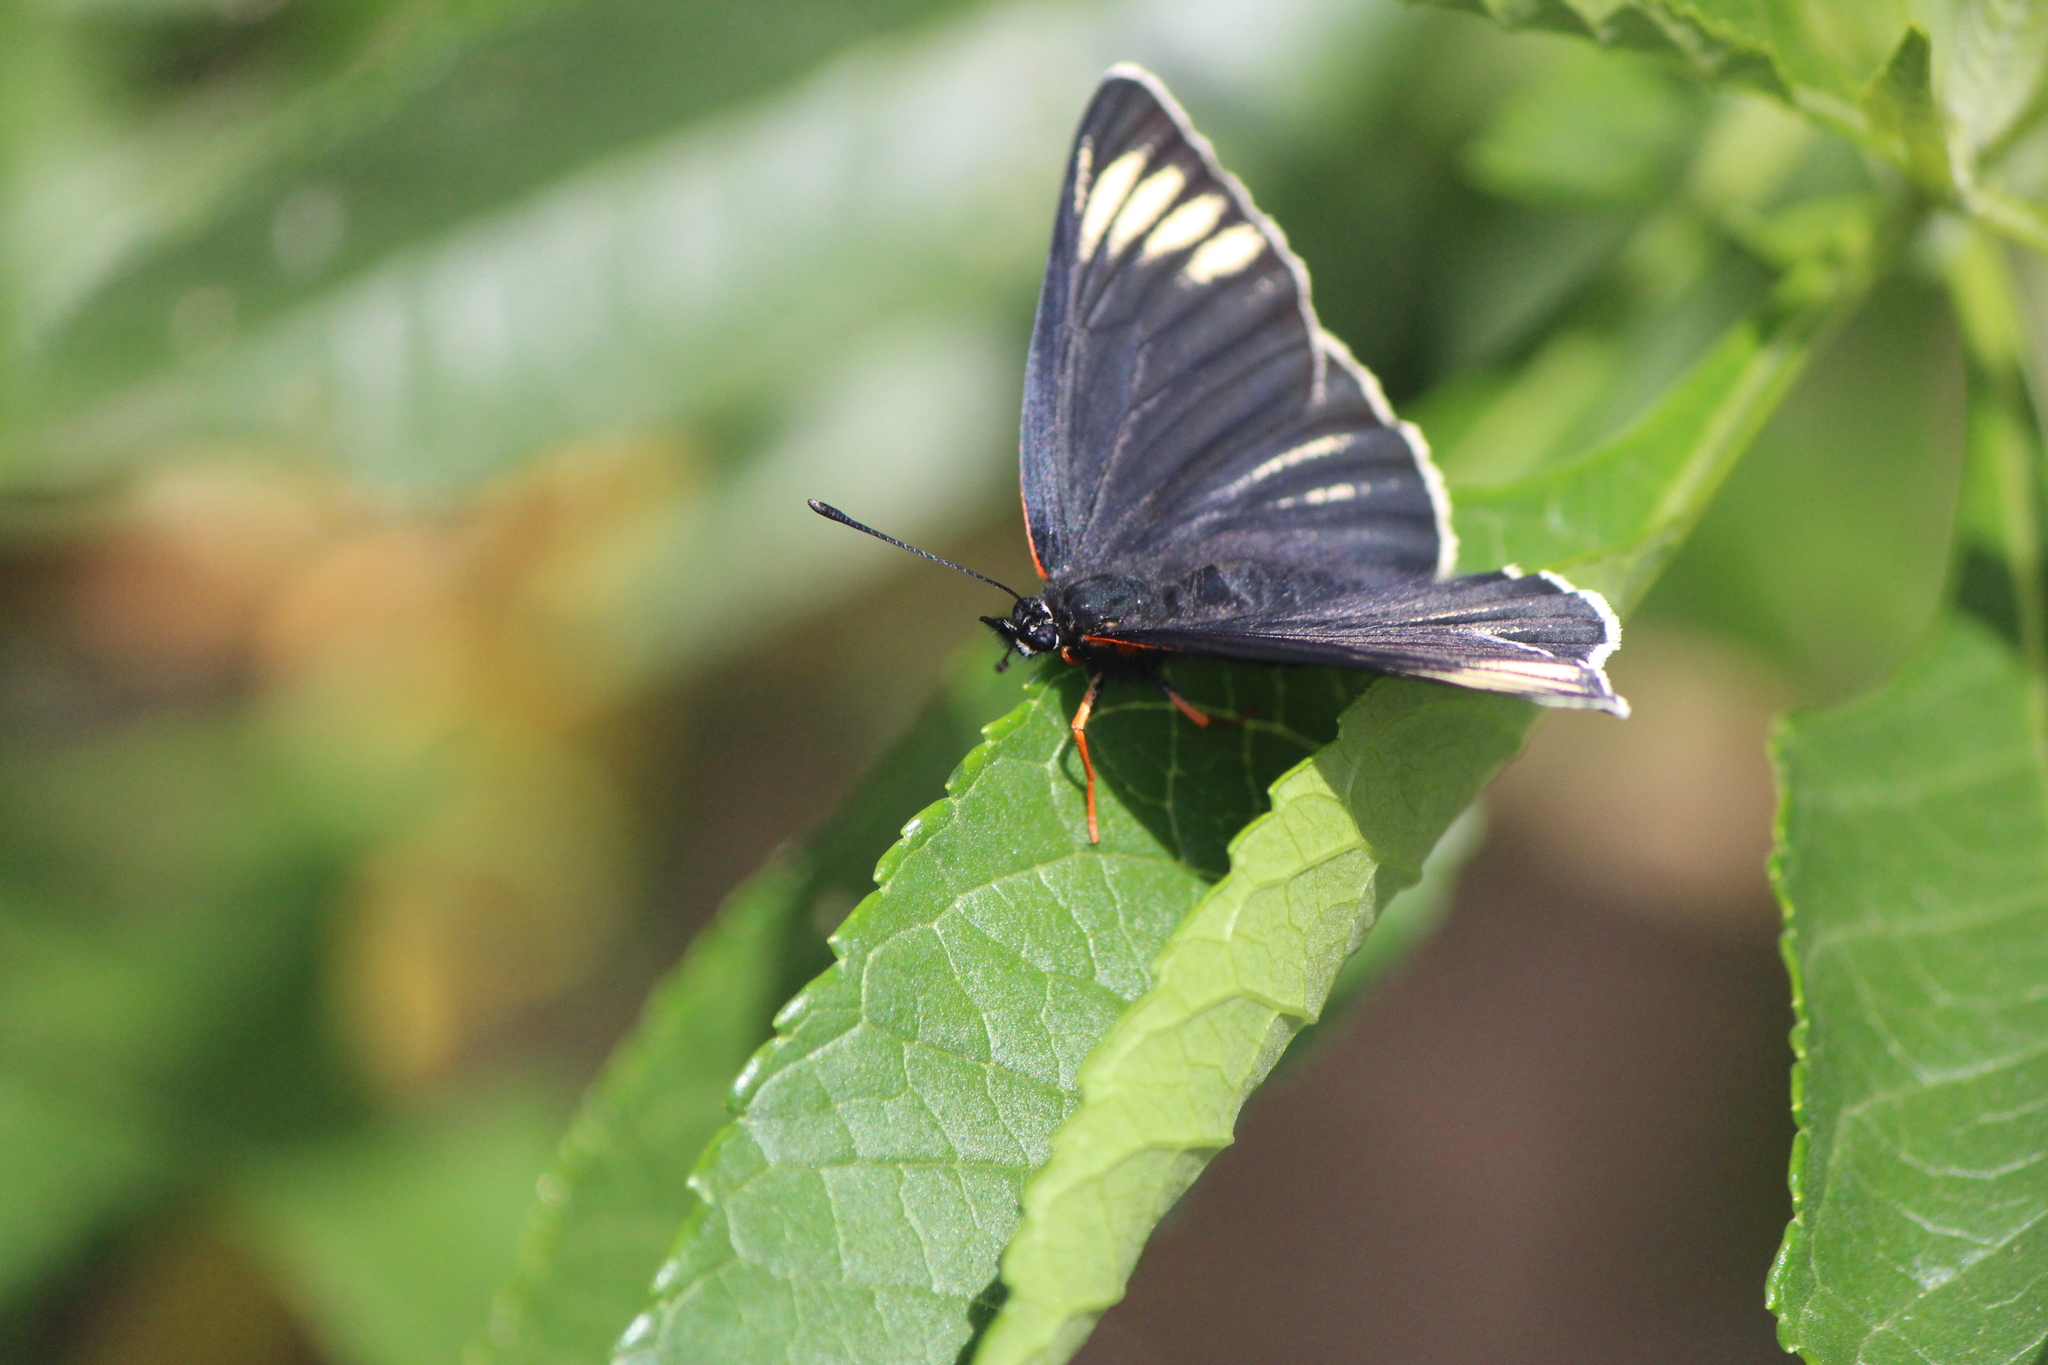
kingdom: Animalia
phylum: Arthropoda
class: Insecta
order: Lepidoptera
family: Nymphalidae
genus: Chlosyne
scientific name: Chlosyne ehrenbergii
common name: White-rayed patch
